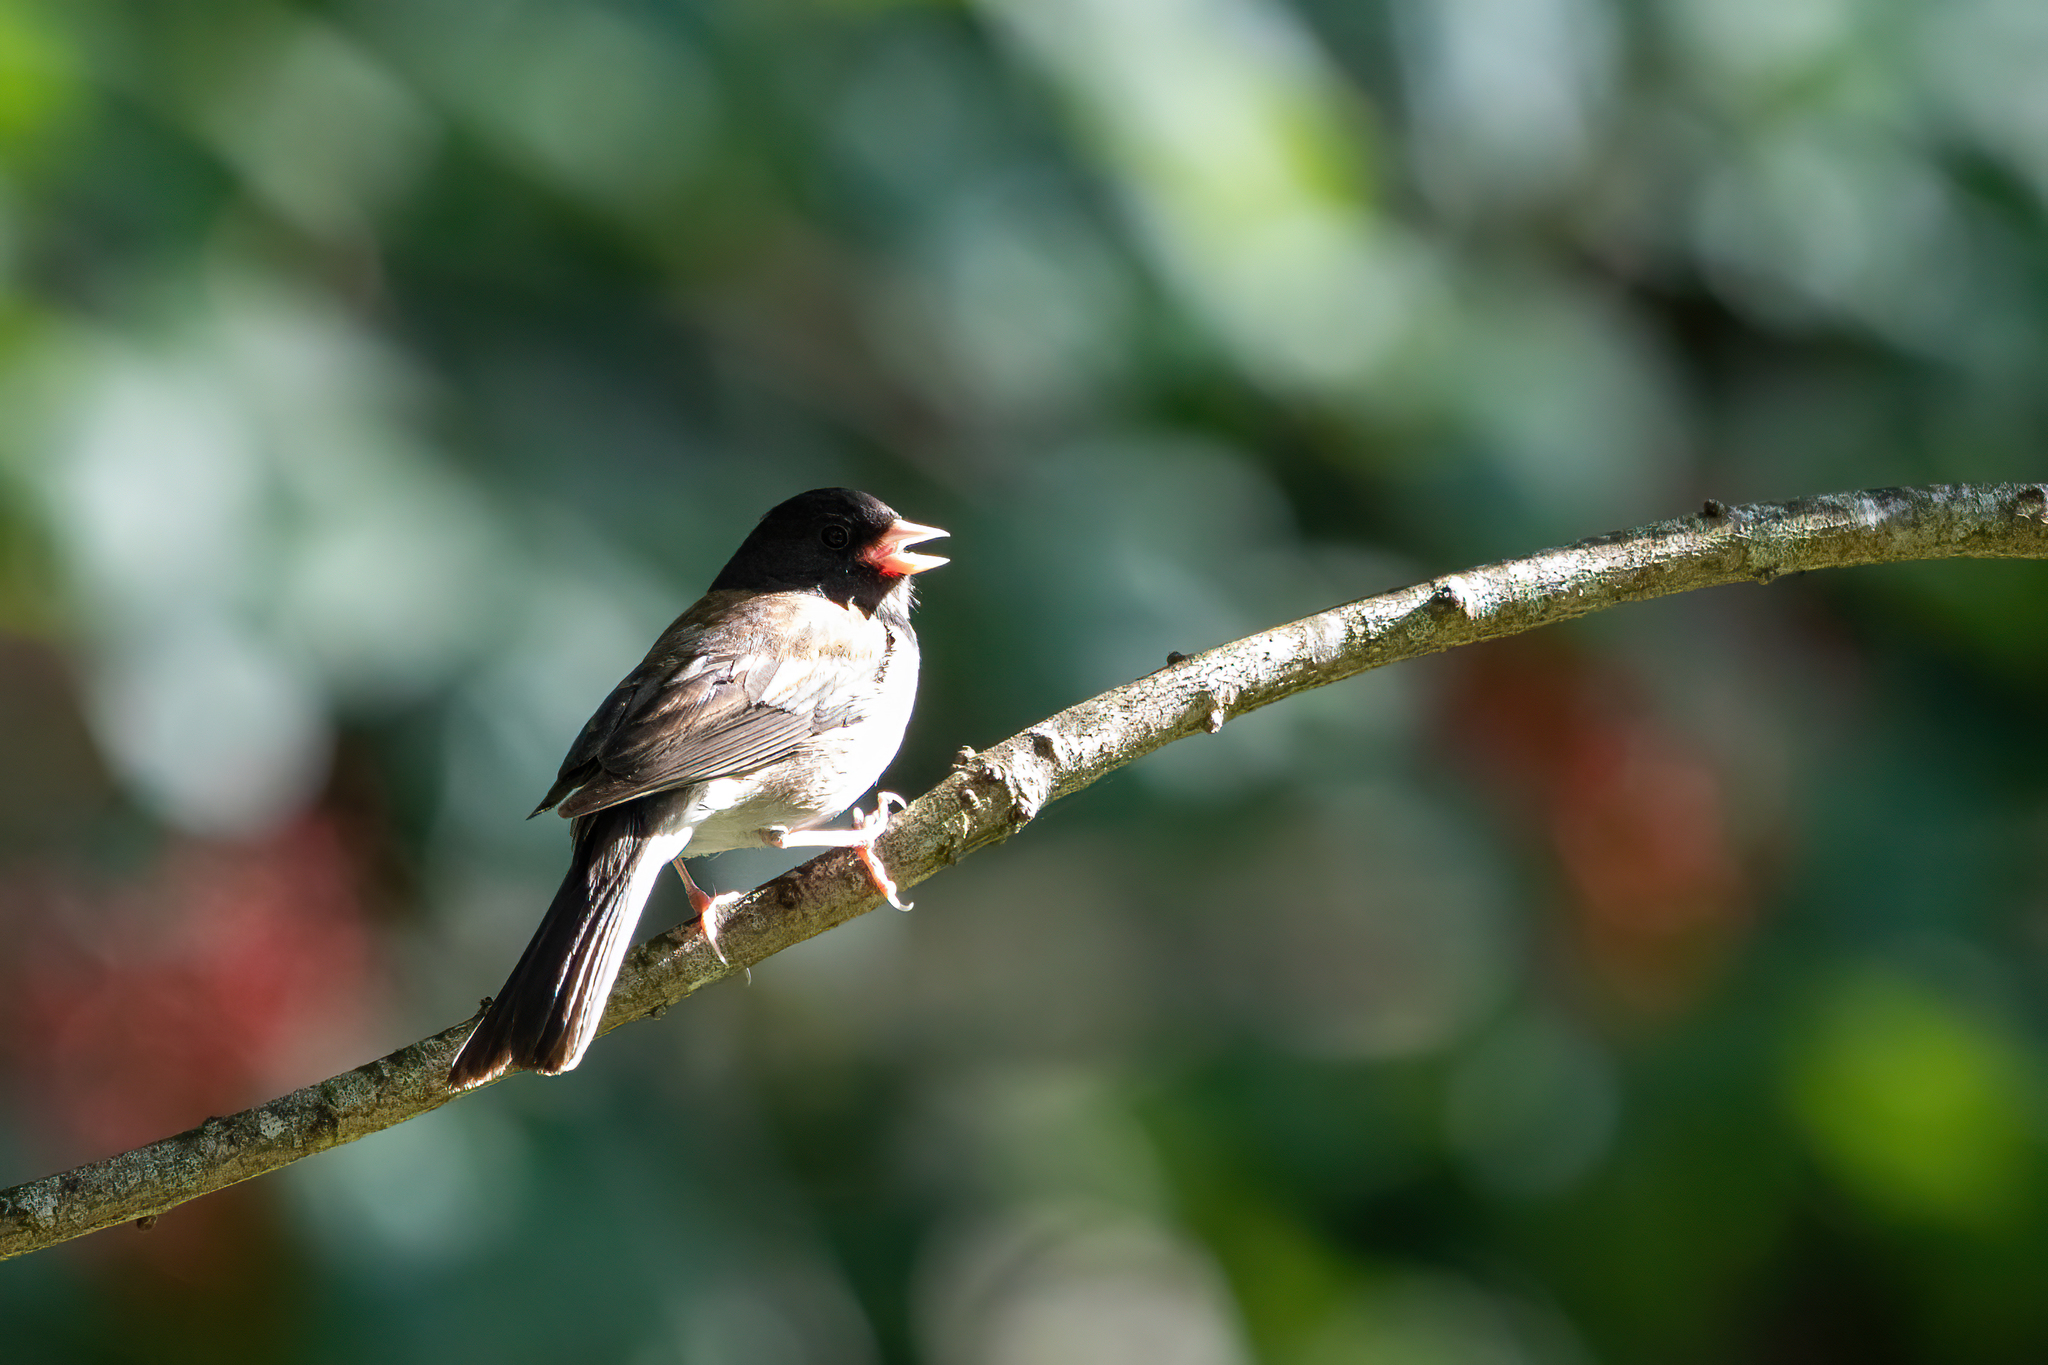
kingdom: Animalia
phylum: Chordata
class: Aves
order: Passeriformes
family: Passerellidae
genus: Junco
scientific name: Junco hyemalis
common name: Dark-eyed junco
